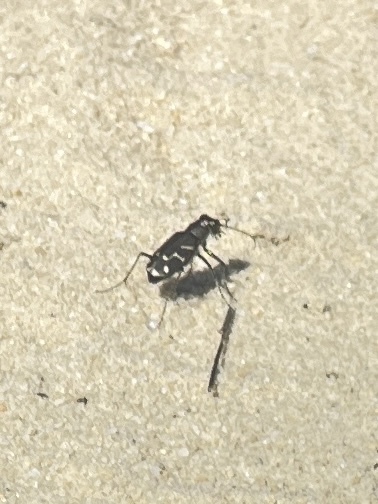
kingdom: Animalia
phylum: Arthropoda
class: Insecta
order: Coleoptera
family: Carabidae
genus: Cicindela
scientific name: Cicindela tranquebarica
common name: Oblique-lined tiger beetle
